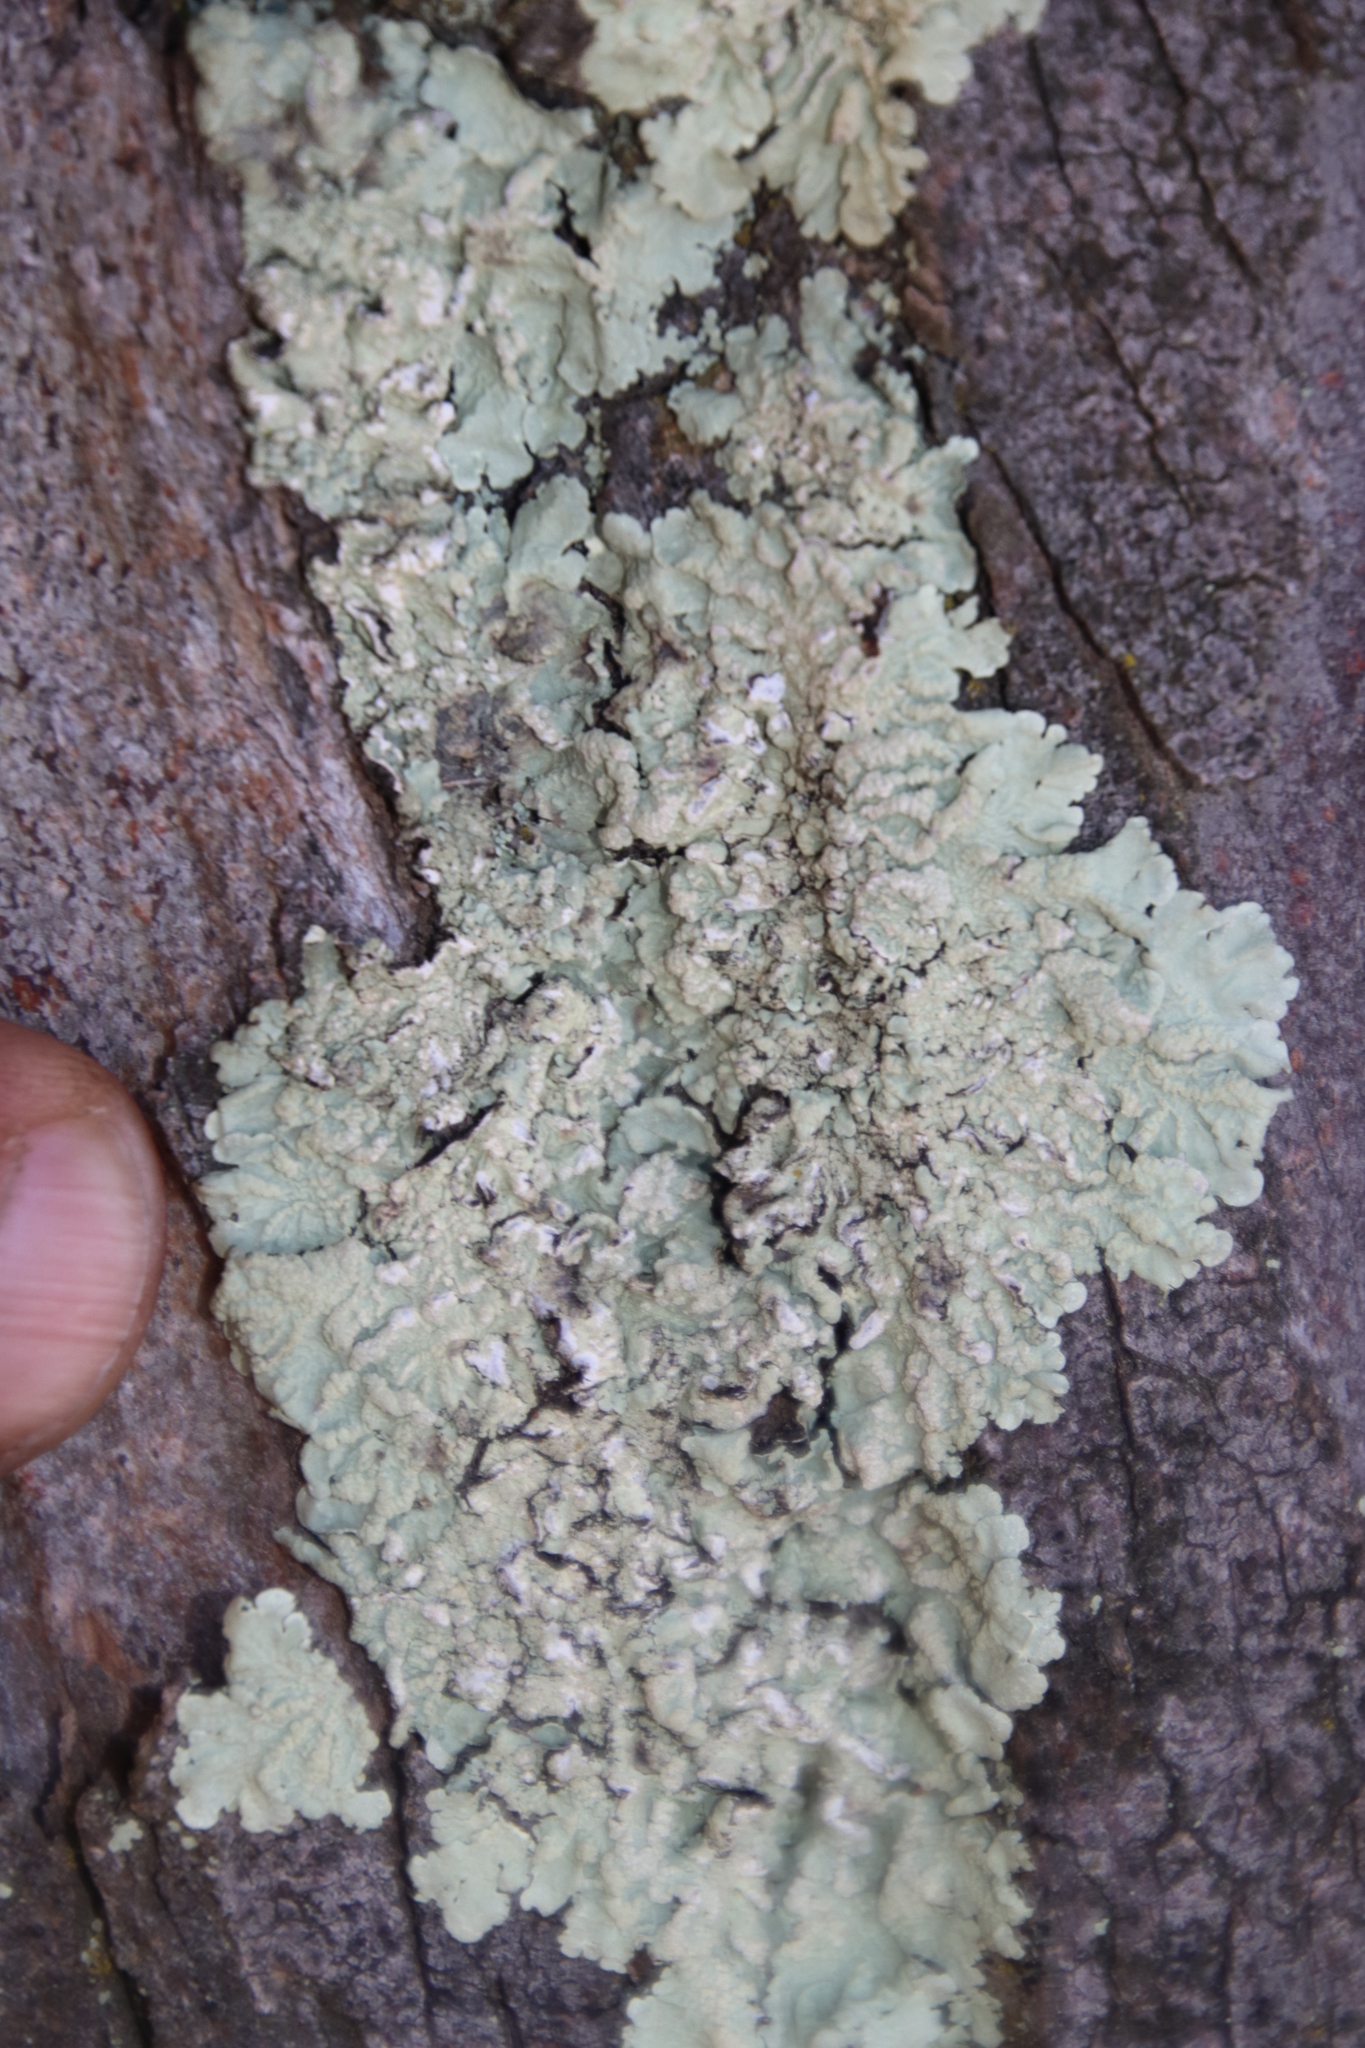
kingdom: Fungi
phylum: Ascomycota
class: Lecanoromycetes
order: Lecanorales
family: Parmeliaceae
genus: Flavoparmelia
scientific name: Flavoparmelia soredians
